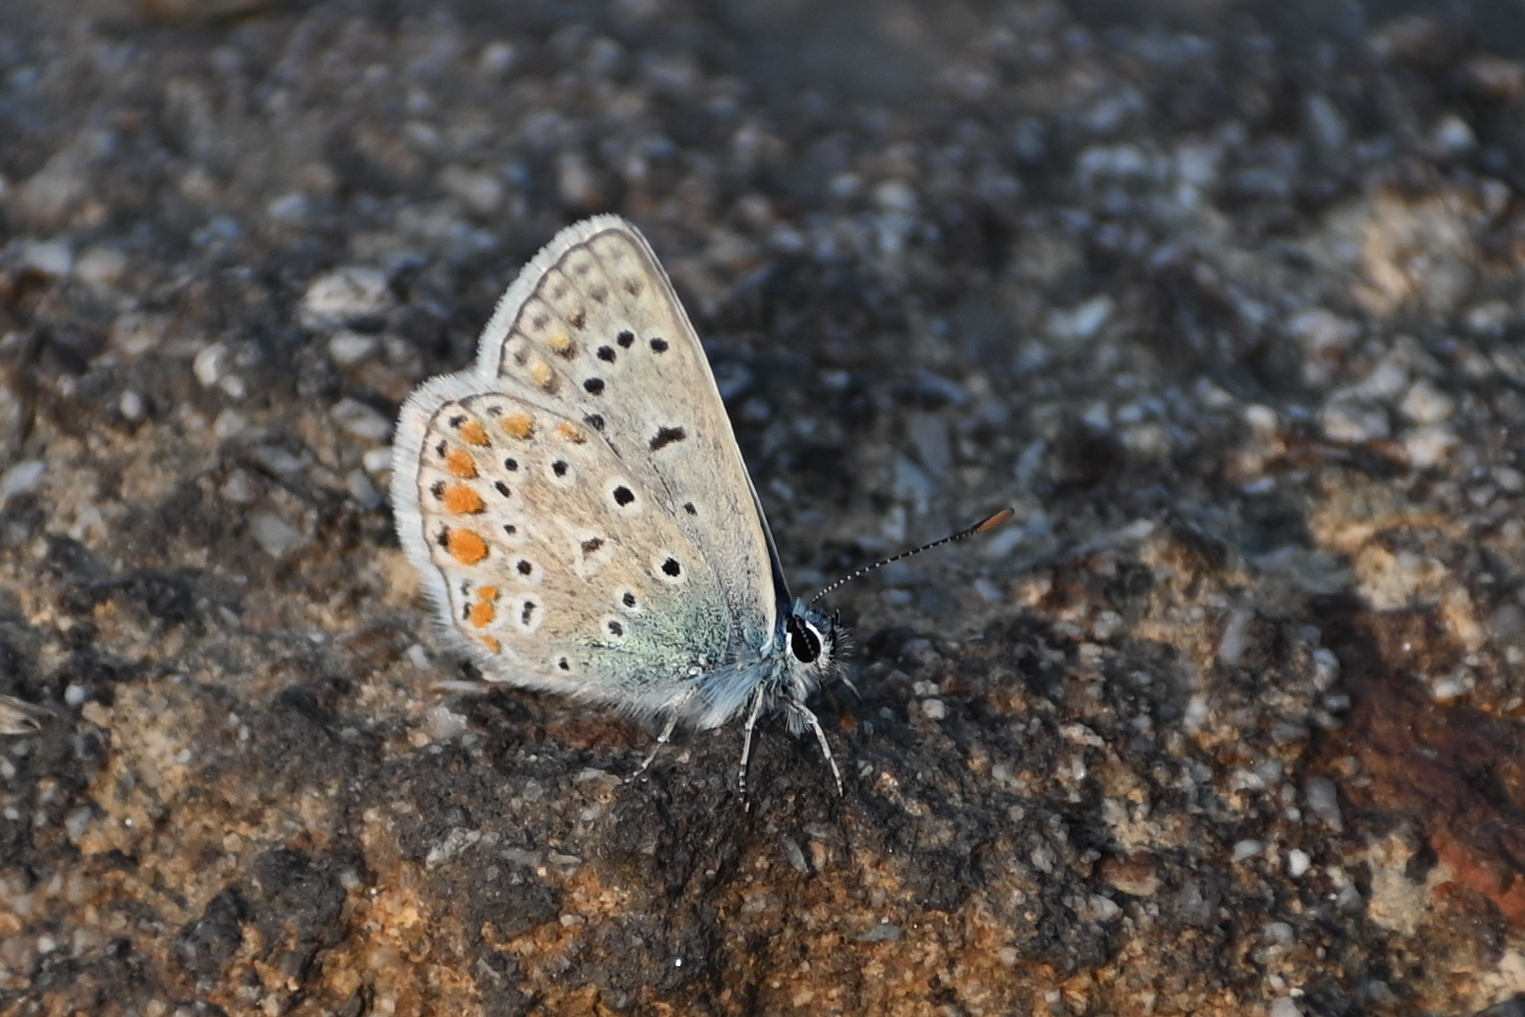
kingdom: Animalia
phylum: Arthropoda
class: Insecta
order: Lepidoptera
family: Lycaenidae
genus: Polyommatus
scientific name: Polyommatus icarus
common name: Common blue
